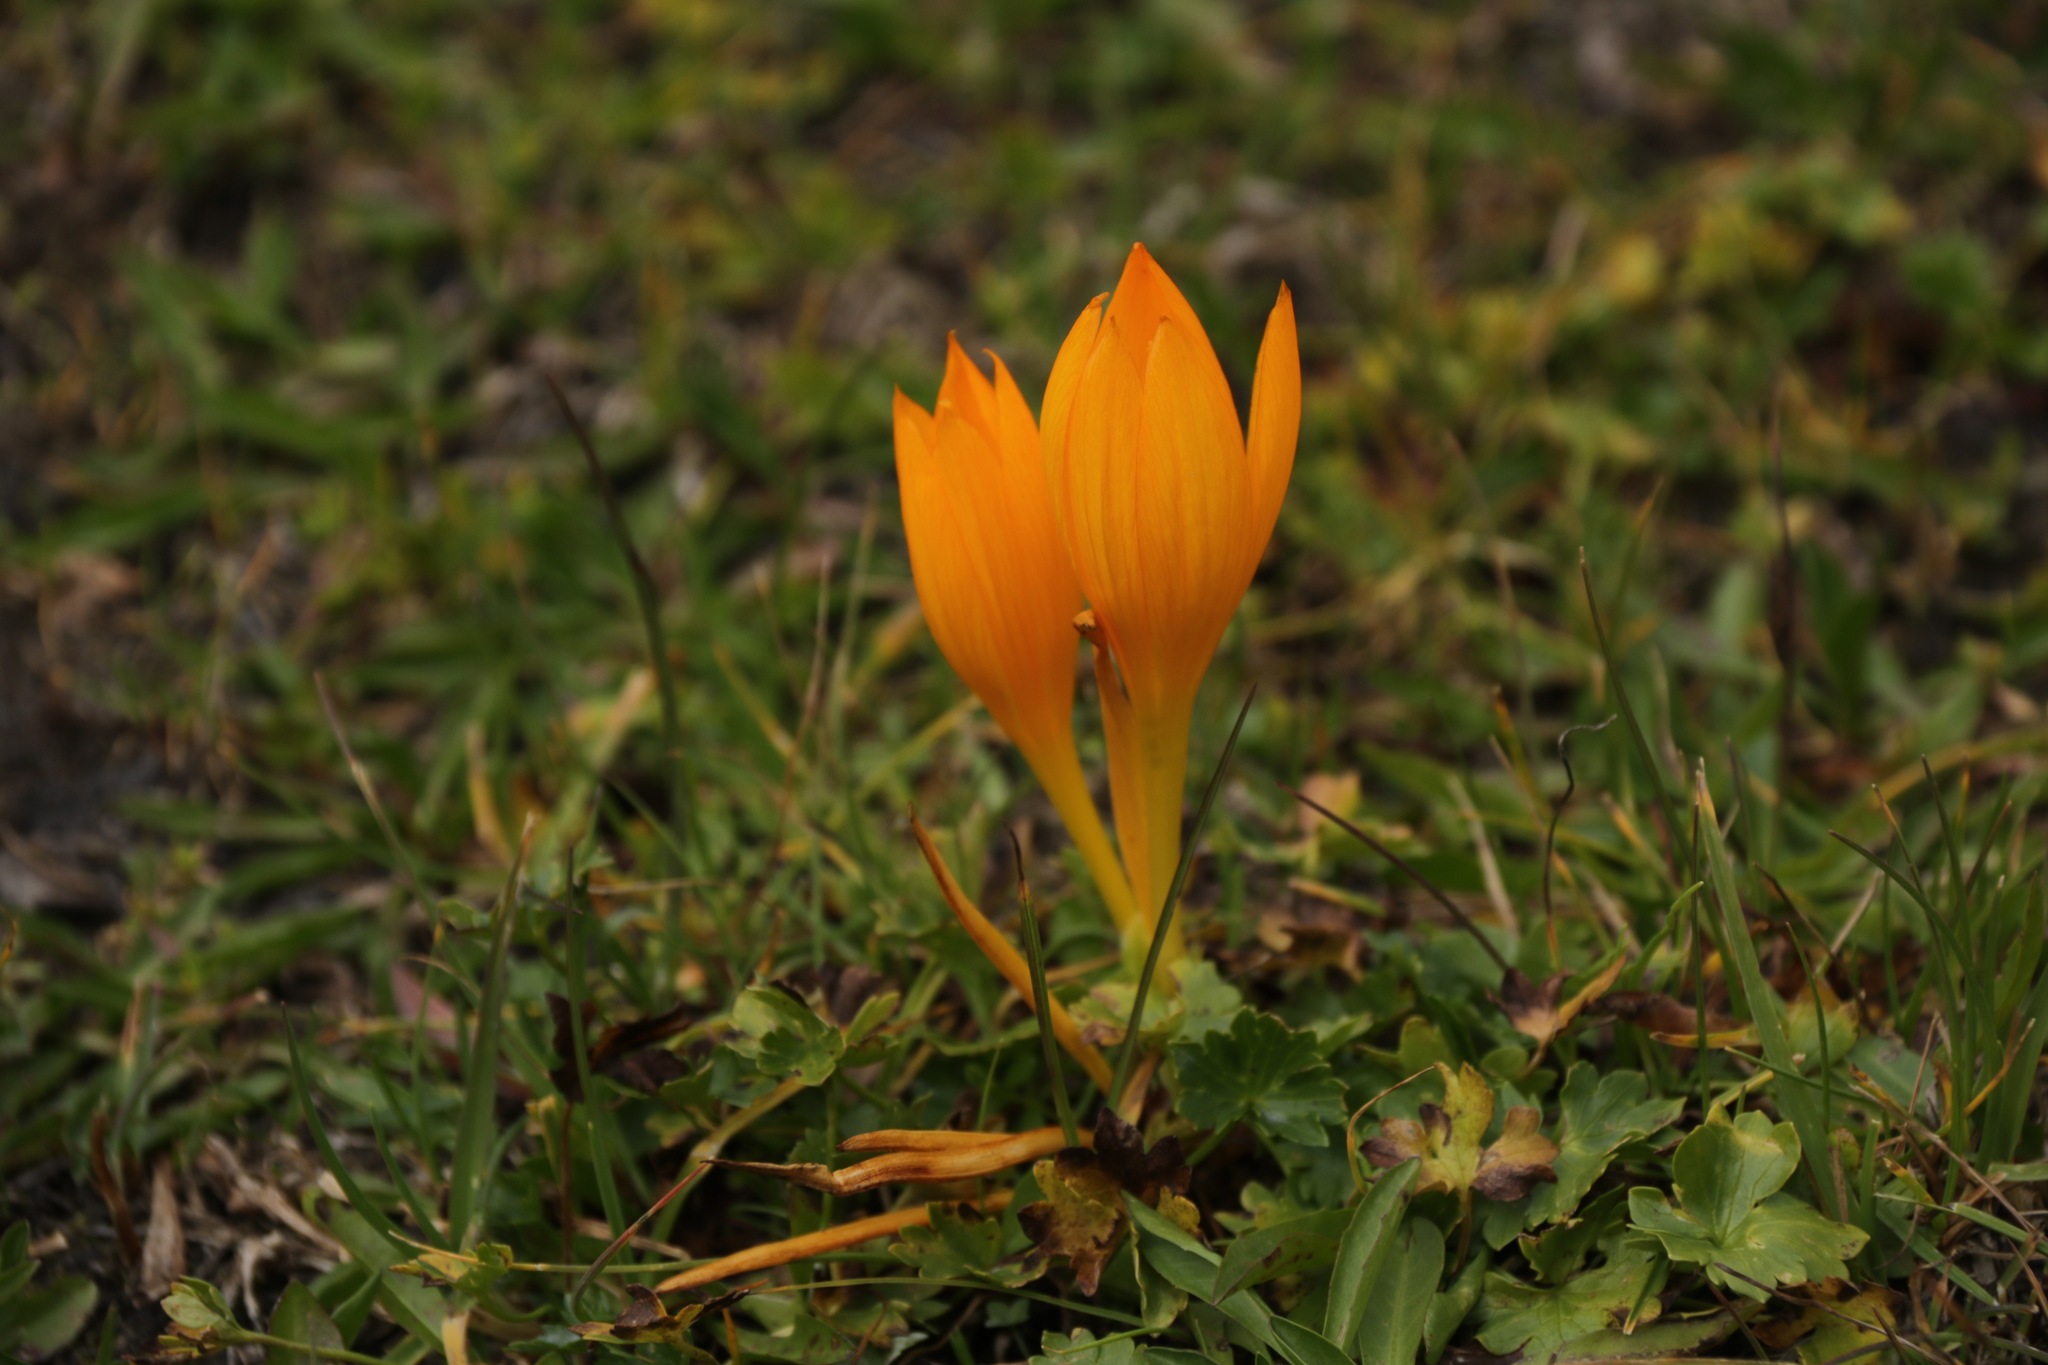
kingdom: Plantae
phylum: Tracheophyta
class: Liliopsida
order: Asparagales
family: Iridaceae
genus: Crocus
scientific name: Crocus scharojanii
